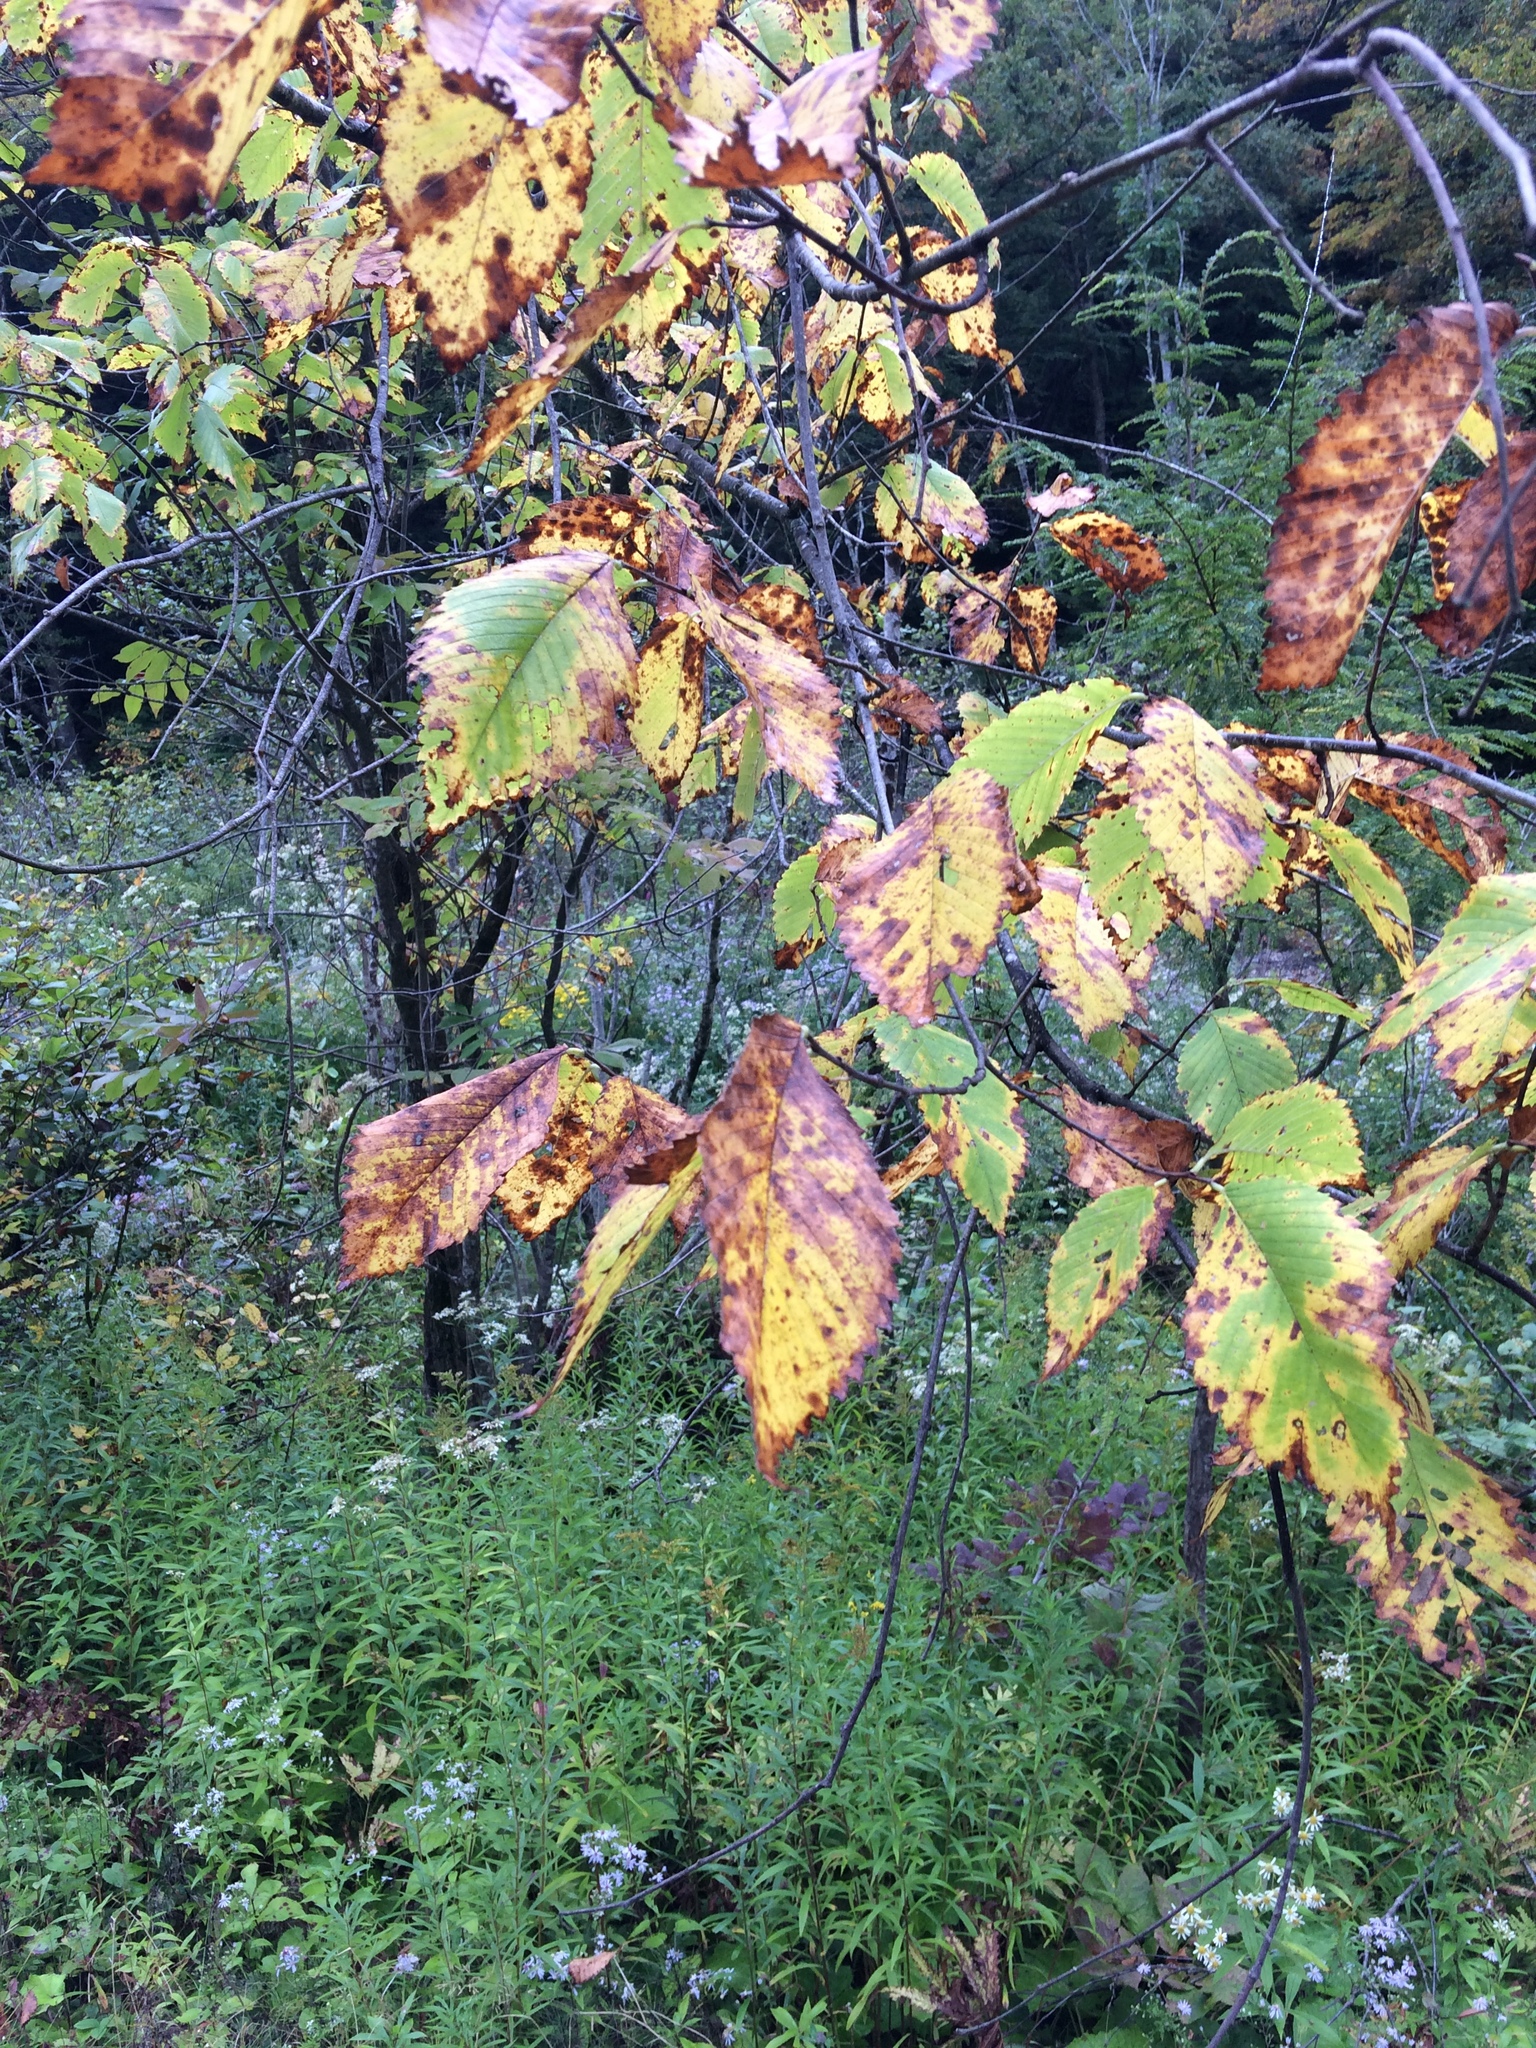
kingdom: Plantae
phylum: Tracheophyta
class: Magnoliopsida
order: Rosales
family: Ulmaceae
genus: Ulmus
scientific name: Ulmus americana
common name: American elm
